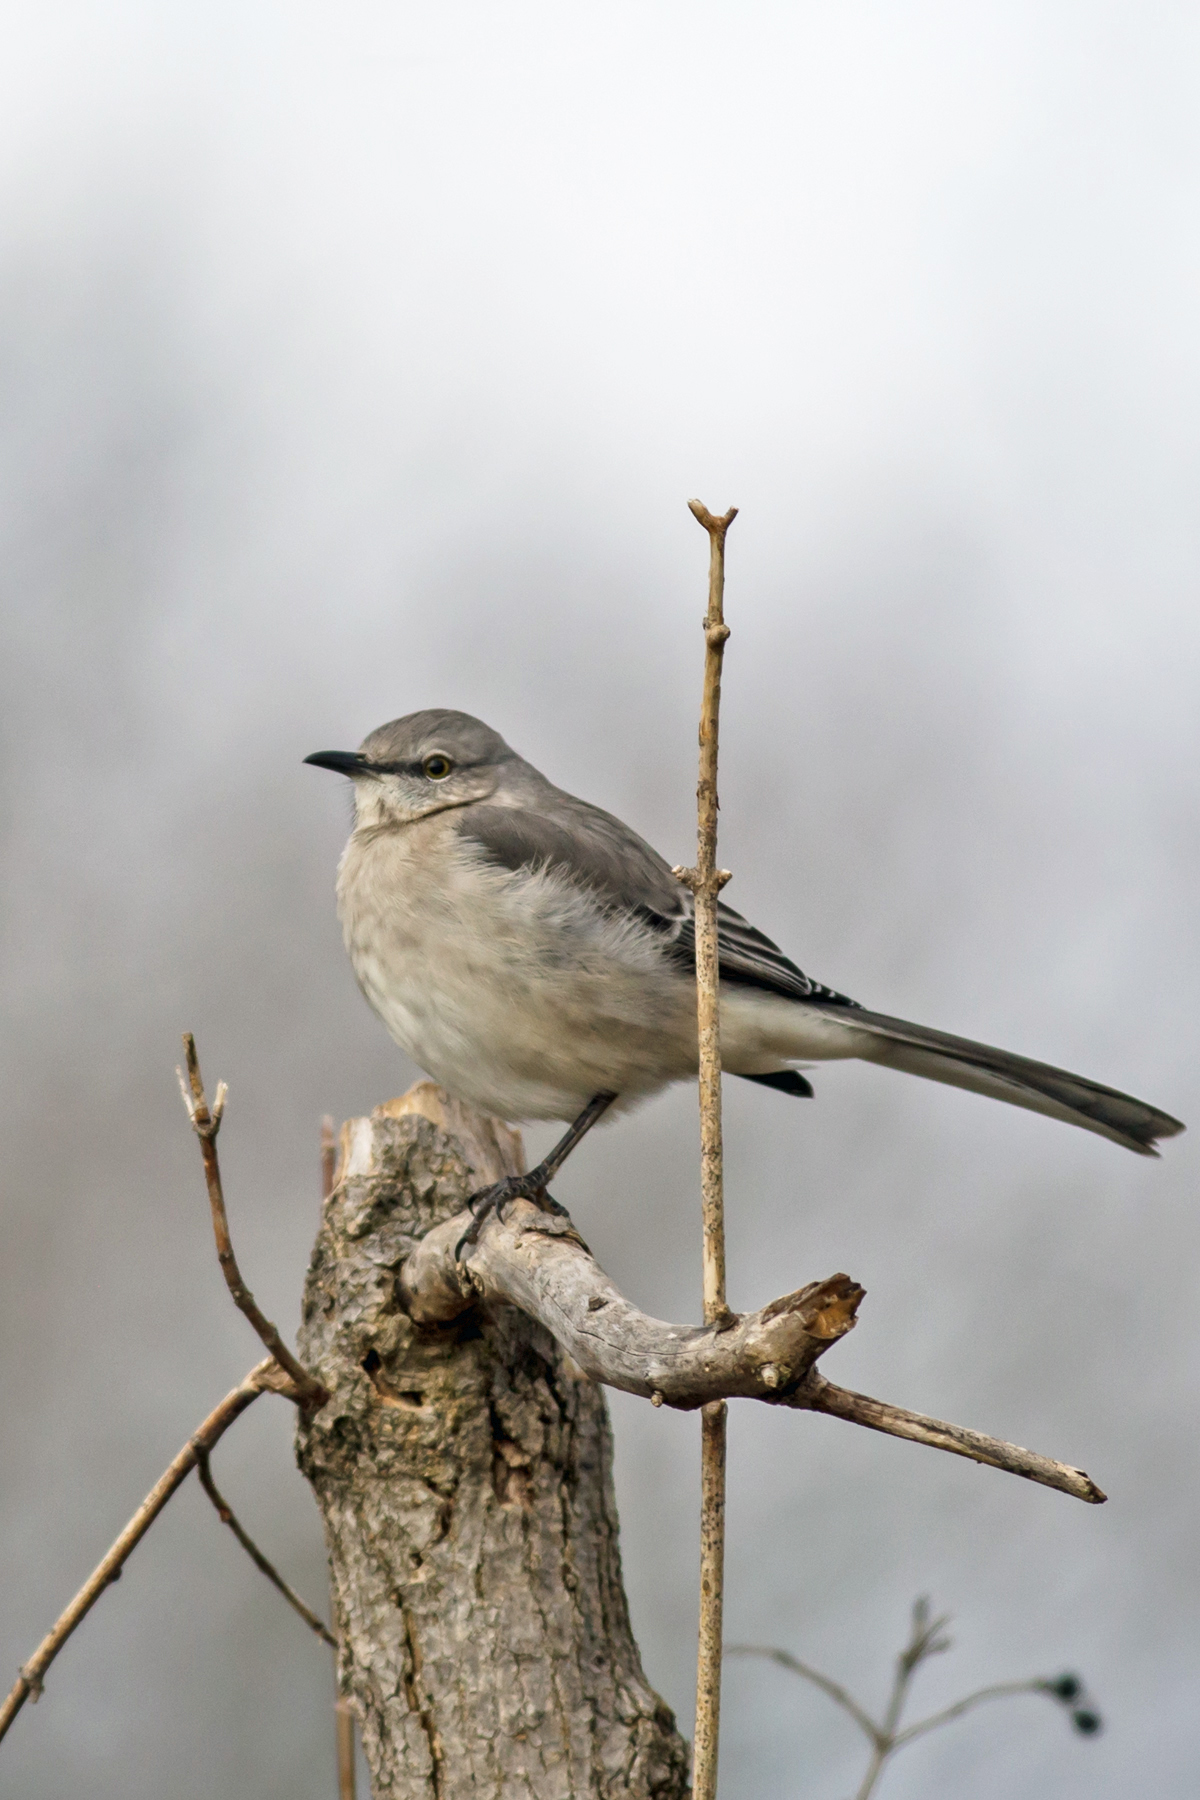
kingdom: Animalia
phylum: Chordata
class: Aves
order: Passeriformes
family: Mimidae
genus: Mimus
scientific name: Mimus polyglottos
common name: Northern mockingbird
